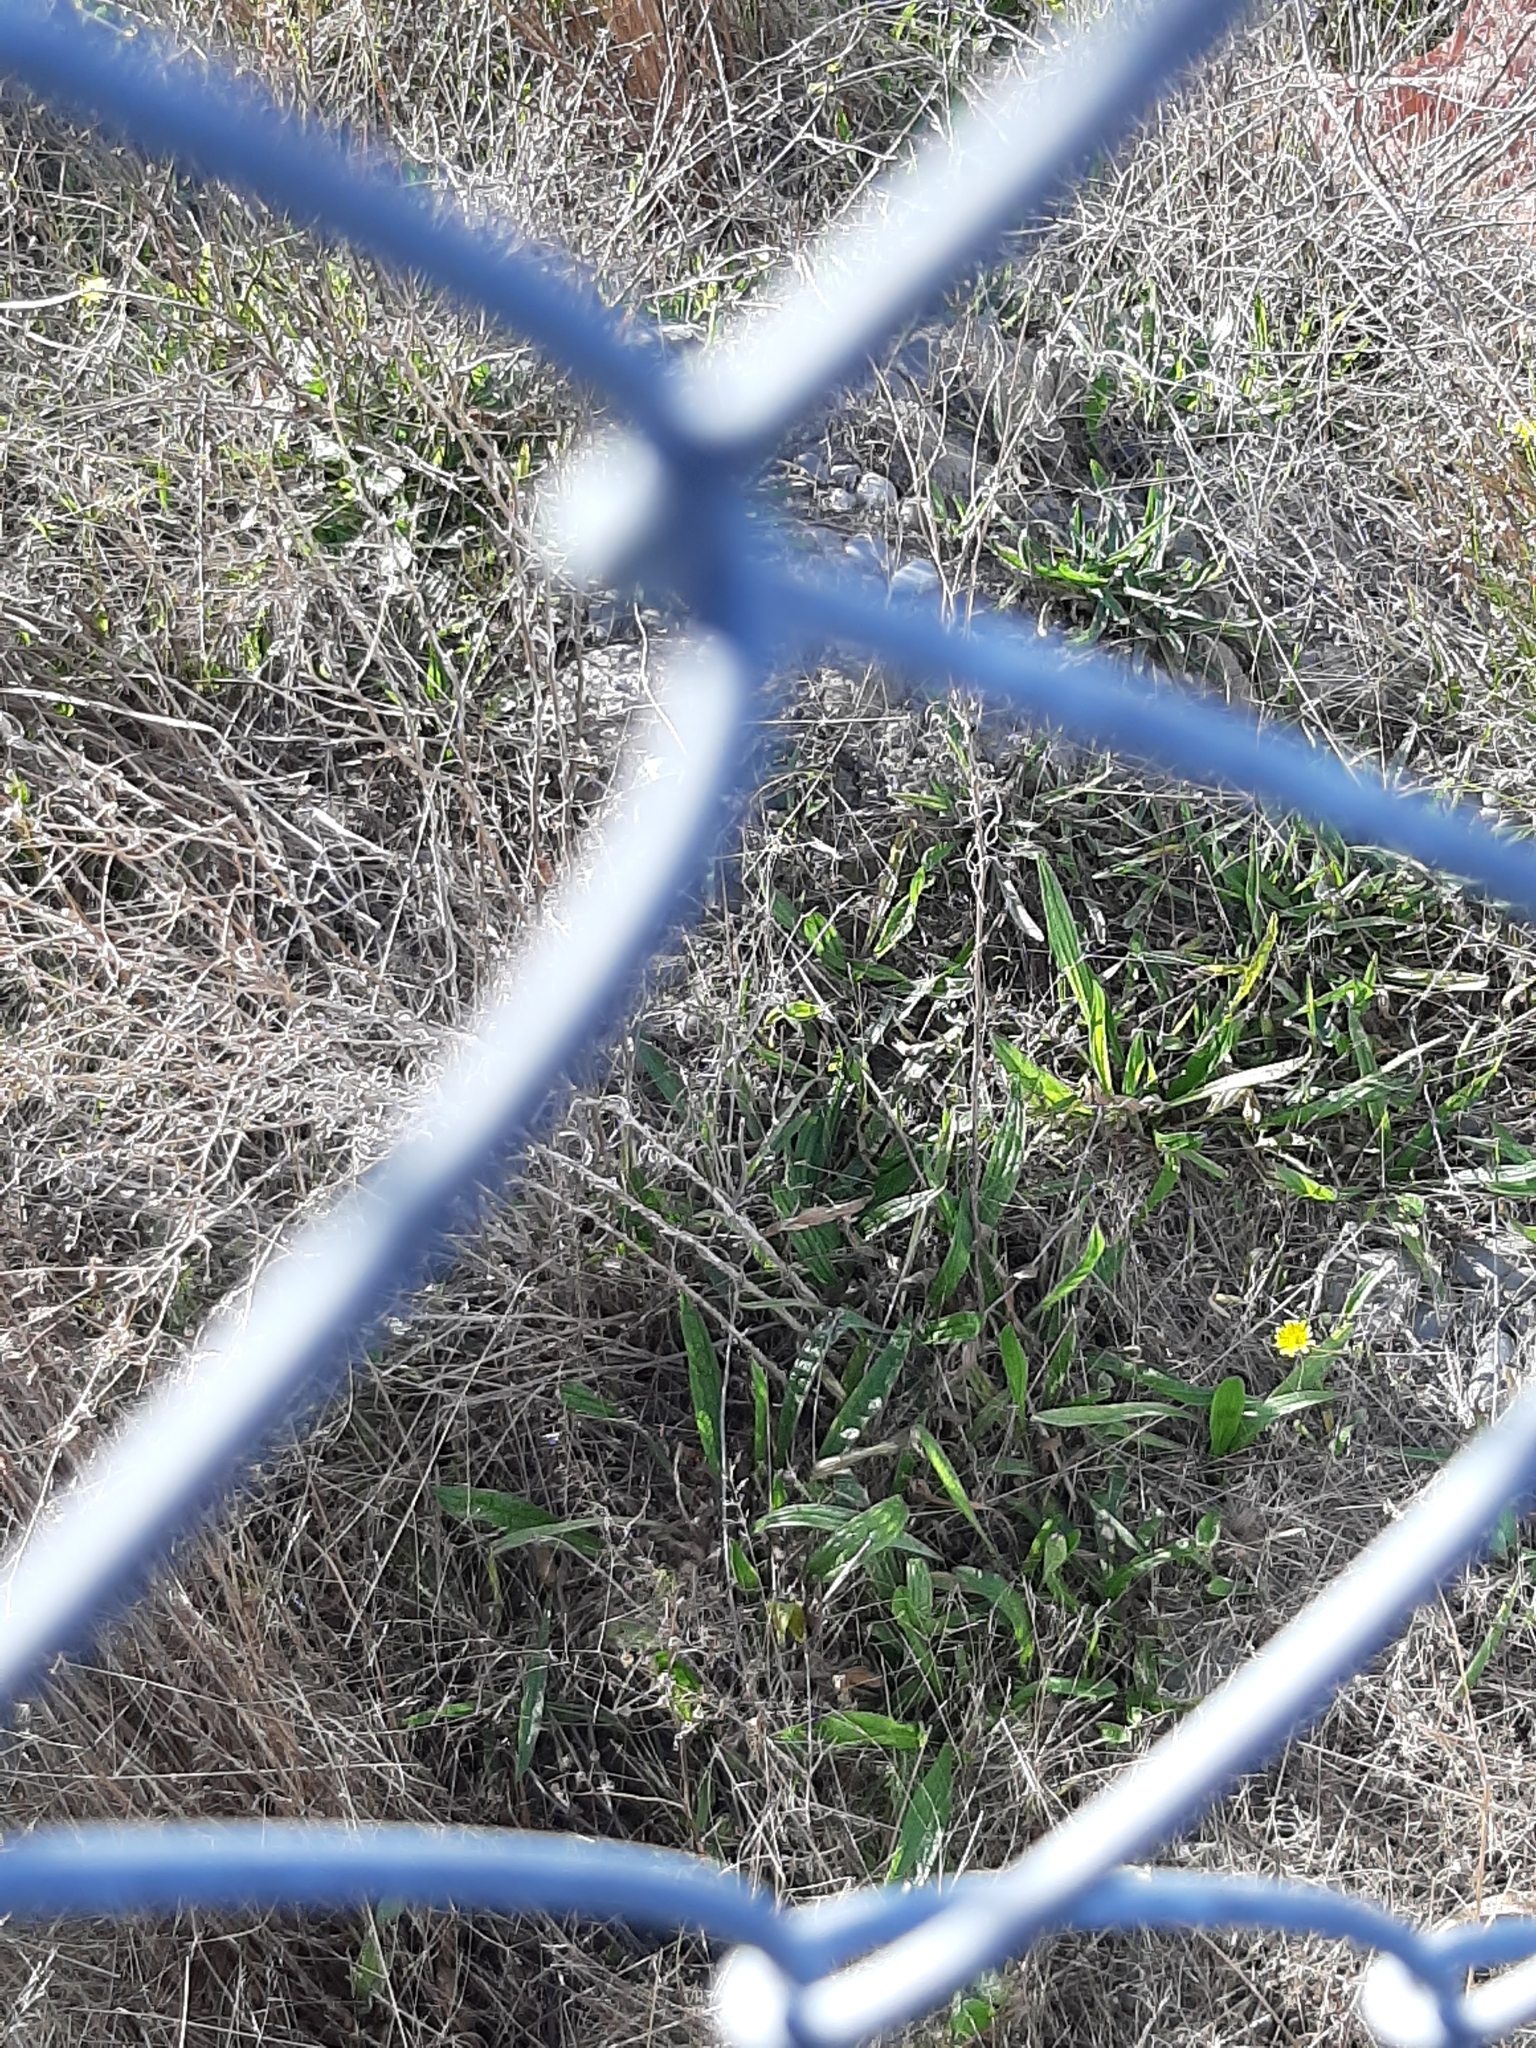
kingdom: Plantae
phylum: Tracheophyta
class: Magnoliopsida
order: Lamiales
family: Plantaginaceae
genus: Plantago
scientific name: Plantago lanceolata
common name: Ribwort plantain
